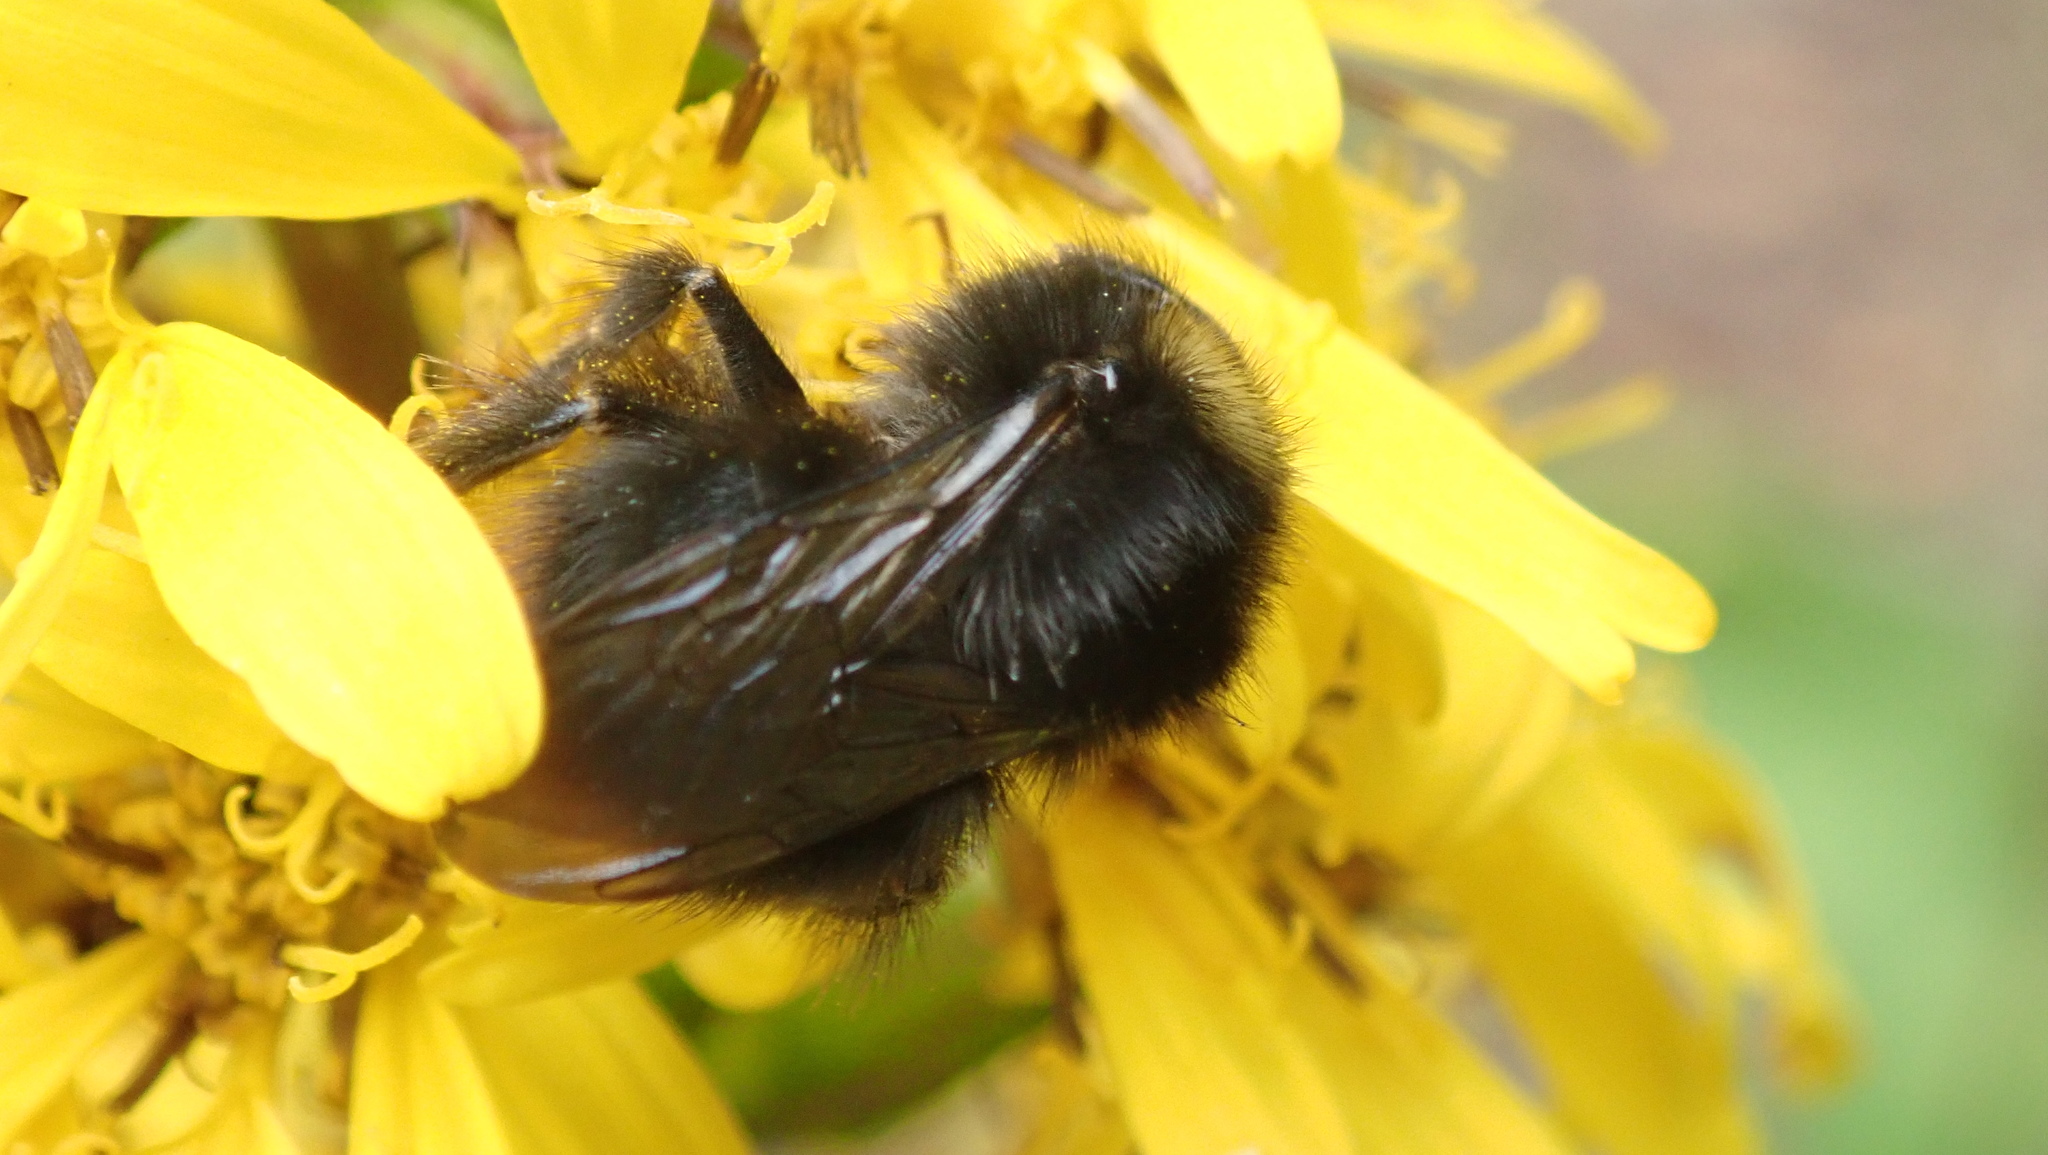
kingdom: Animalia
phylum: Arthropoda
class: Insecta
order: Hymenoptera
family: Apidae
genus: Bombus
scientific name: Bombus pratorum
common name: Early humble-bee
